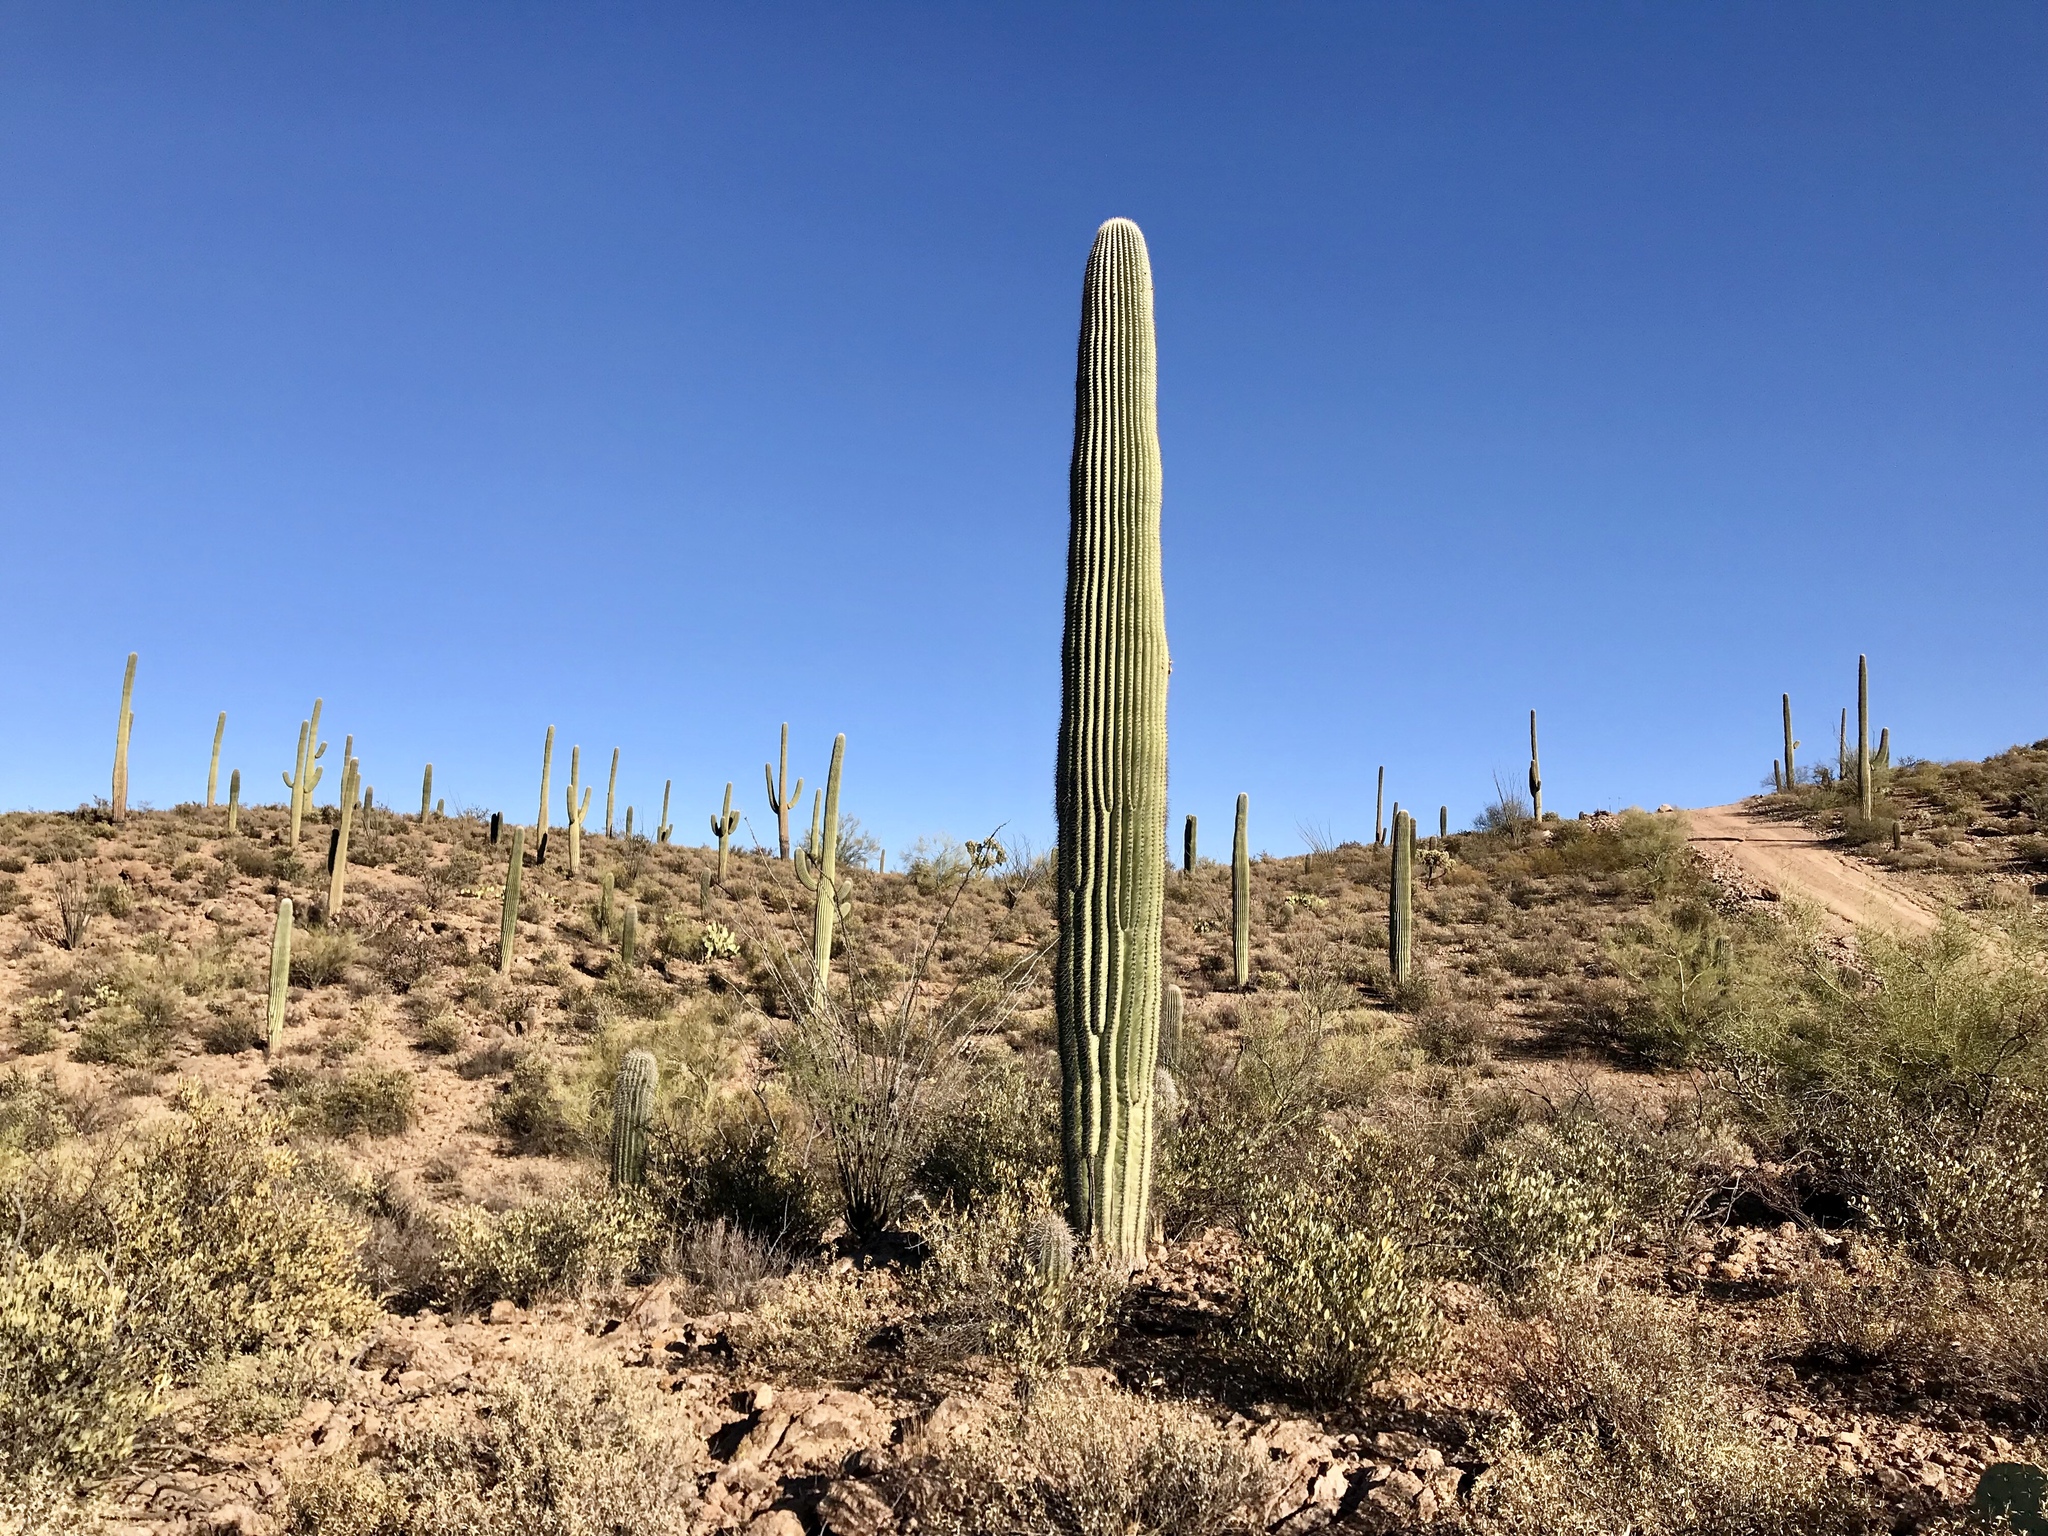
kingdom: Plantae
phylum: Tracheophyta
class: Magnoliopsida
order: Caryophyllales
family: Cactaceae
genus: Carnegiea
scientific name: Carnegiea gigantea
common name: Saguaro
